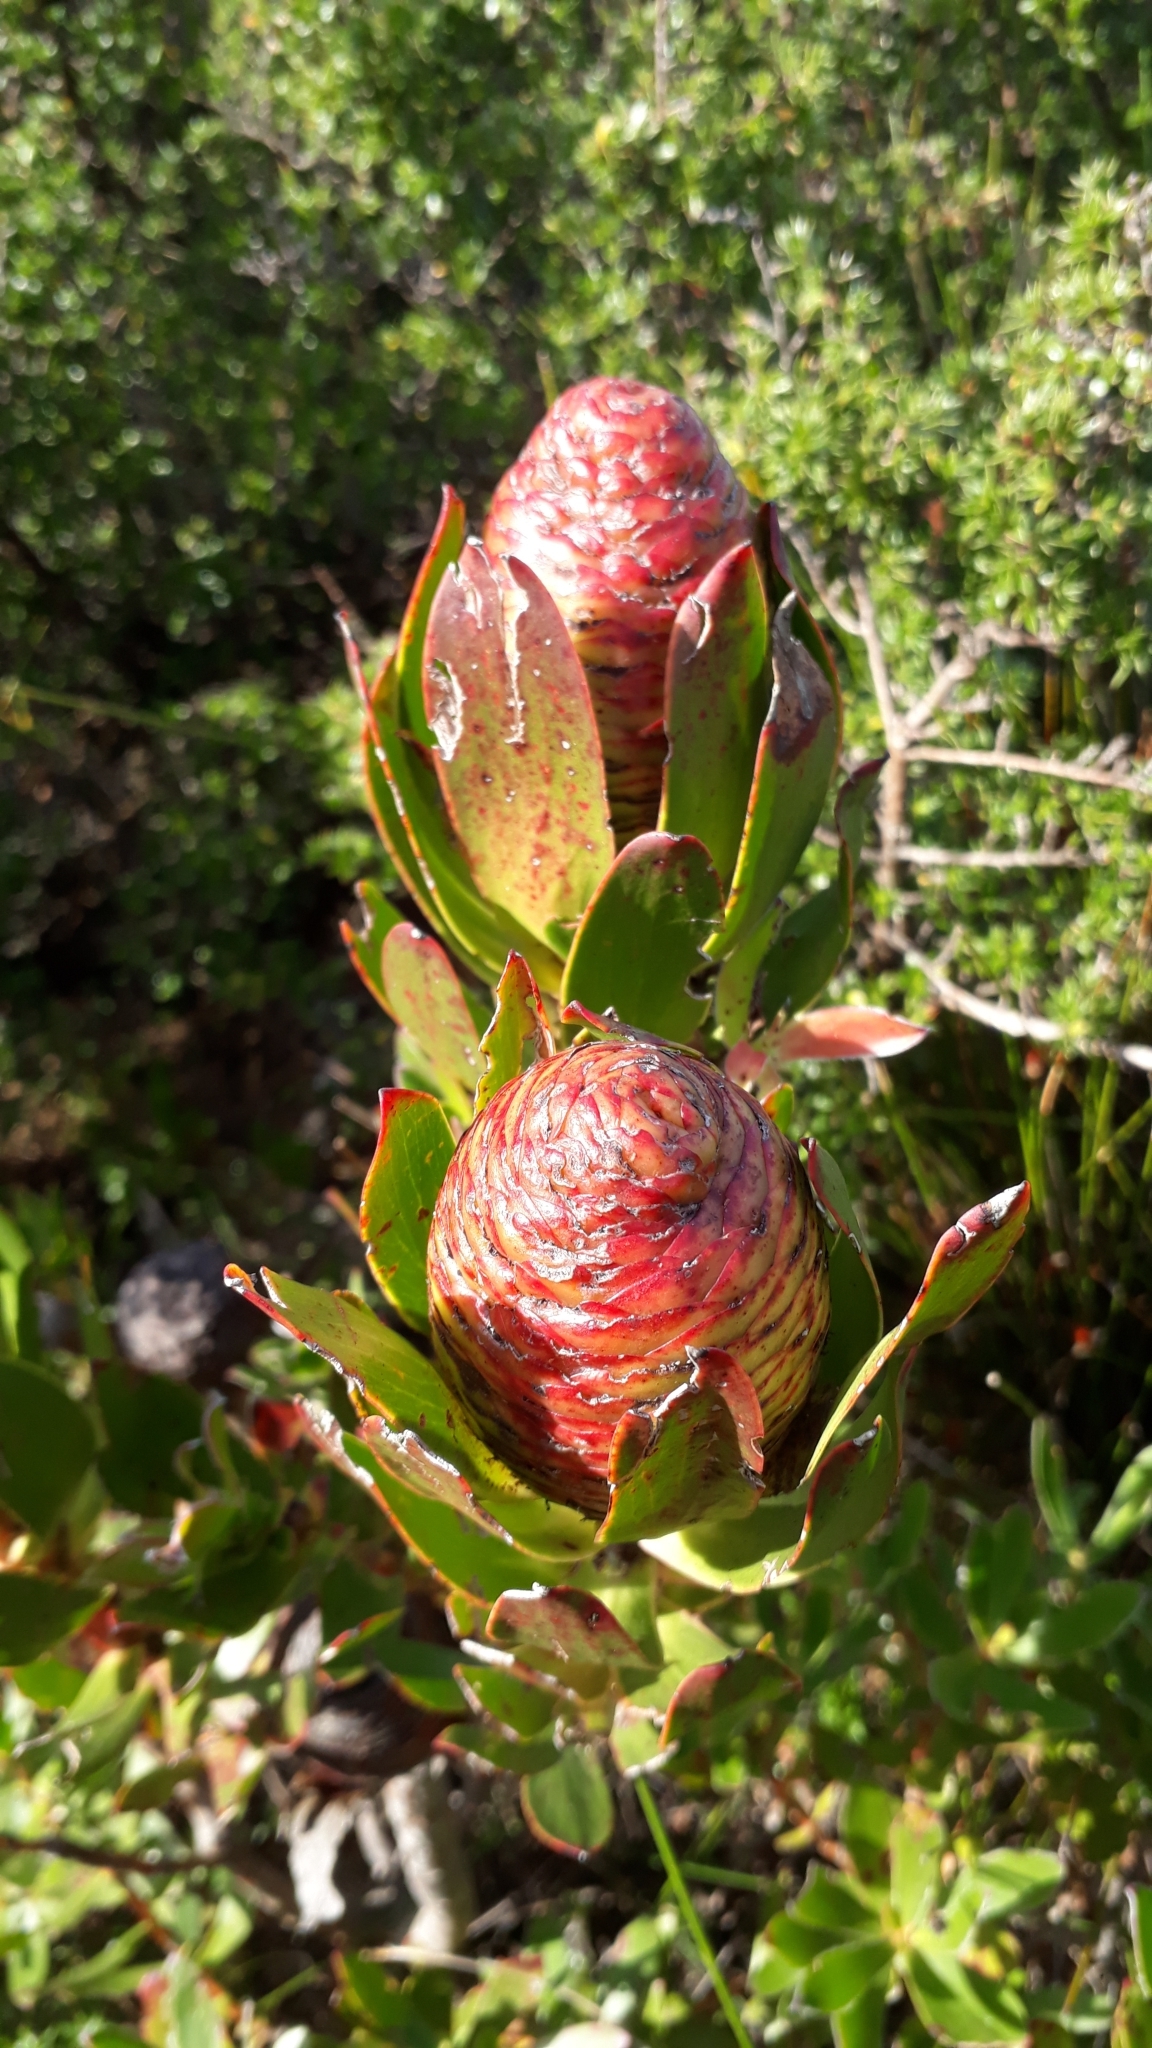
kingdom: Plantae
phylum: Tracheophyta
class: Magnoliopsida
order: Proteales
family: Proteaceae
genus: Leucadendron
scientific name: Leucadendron strobilinum
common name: Mountain rose
